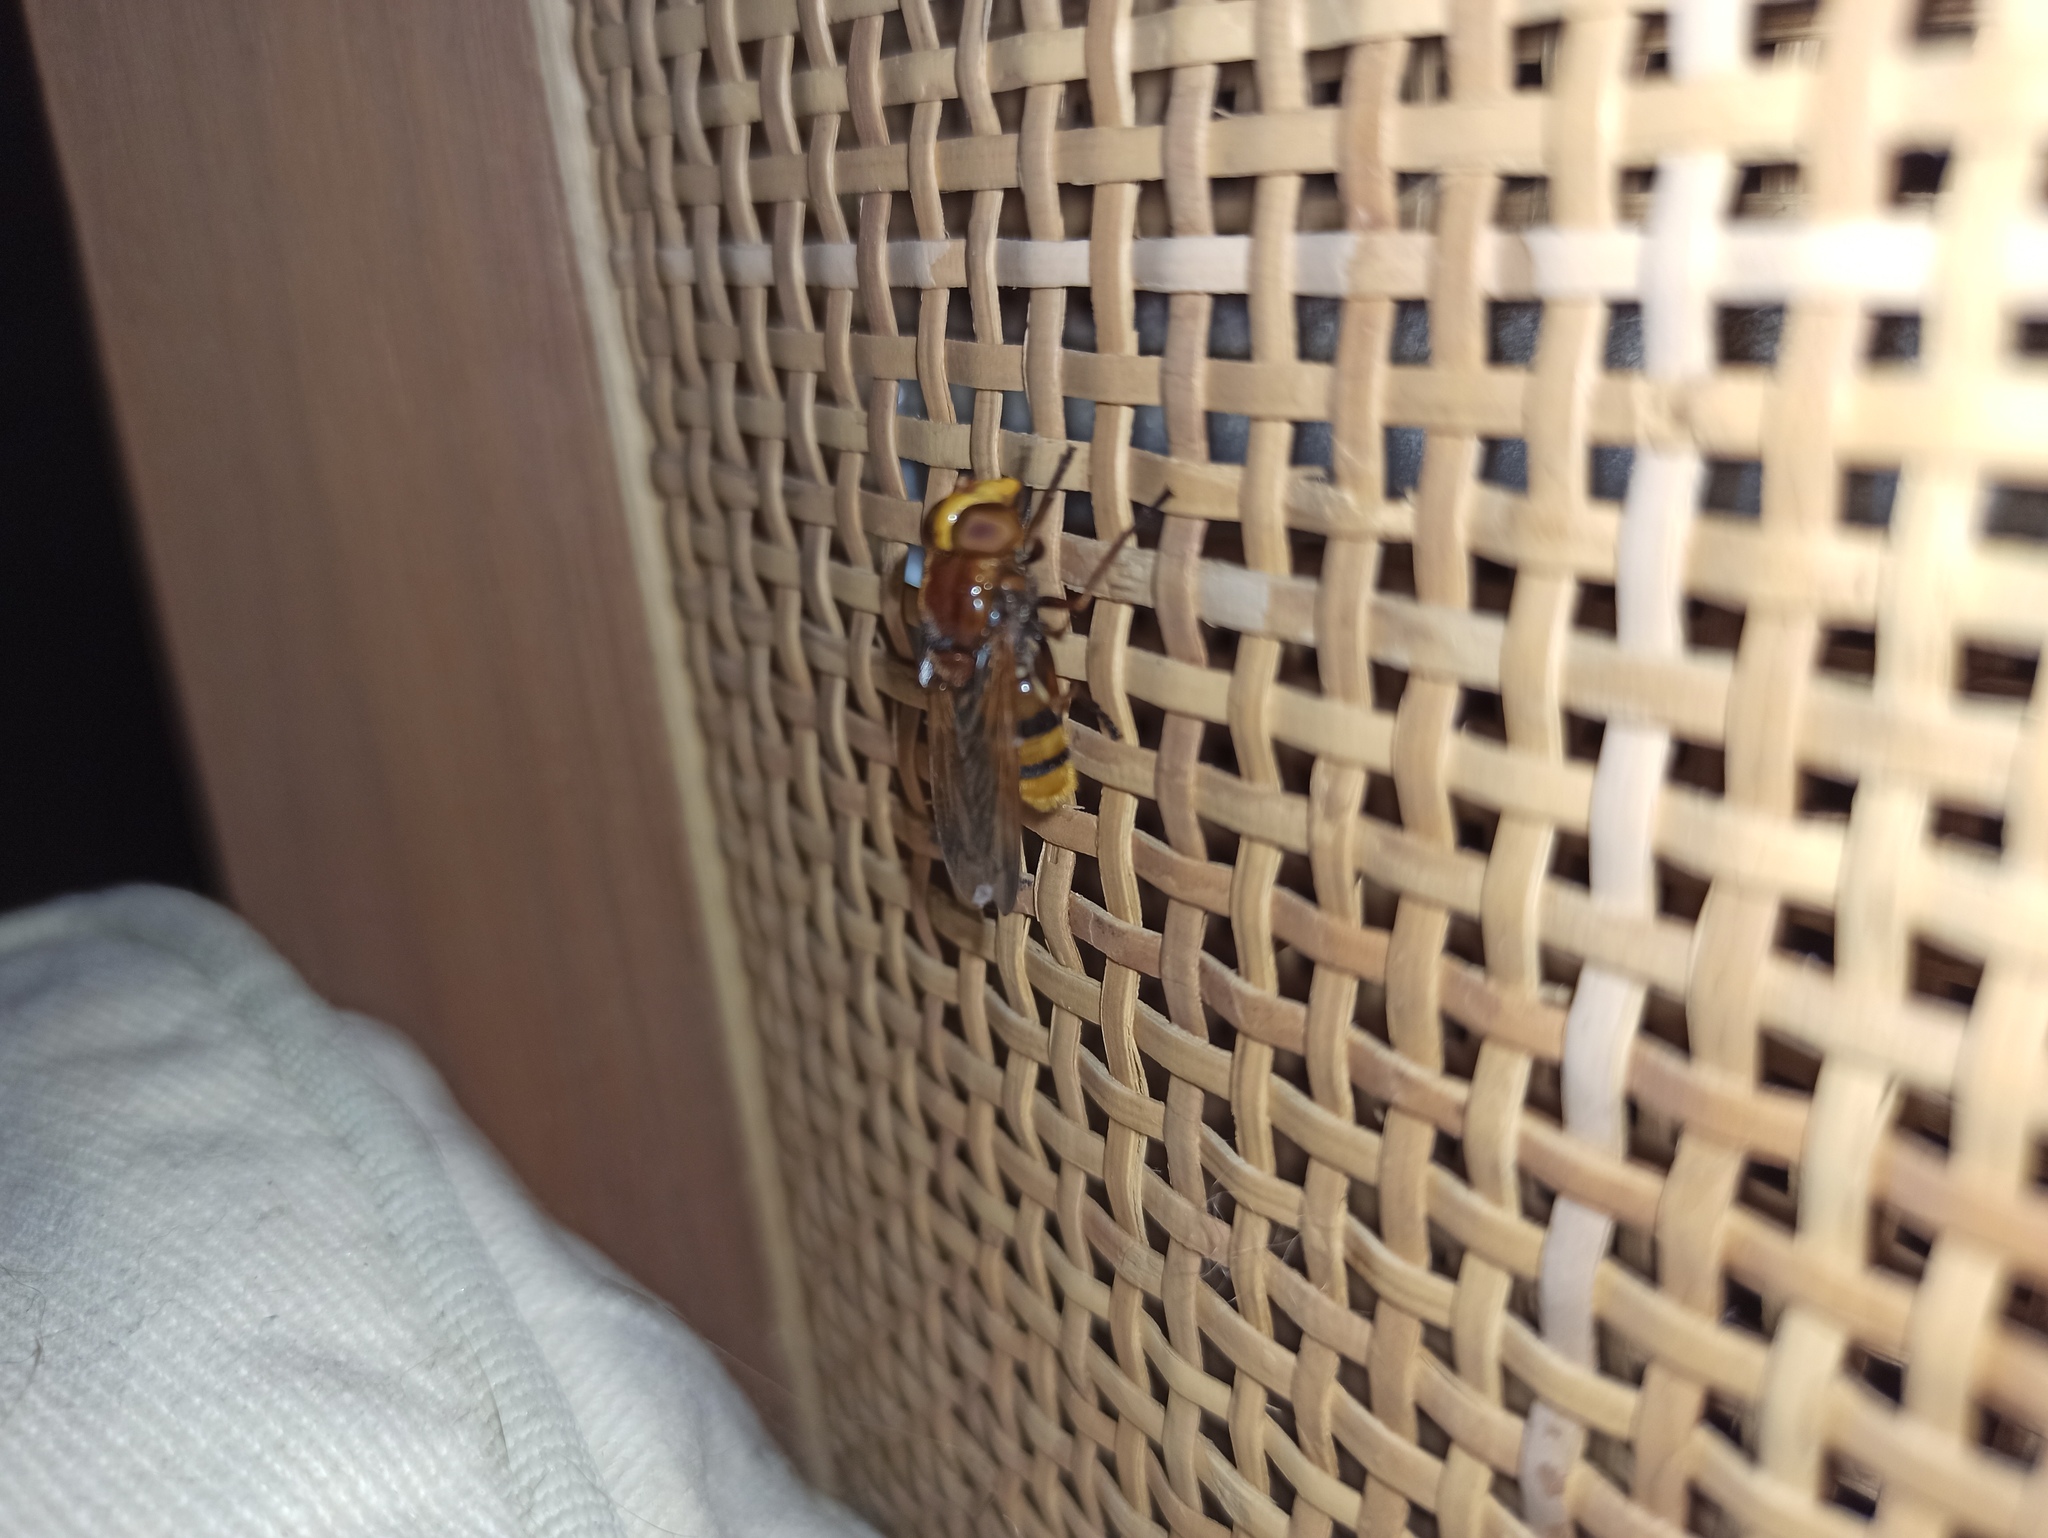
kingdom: Animalia
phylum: Arthropoda
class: Insecta
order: Diptera
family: Syrphidae
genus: Volucella
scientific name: Volucella zonaria
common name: Hornet hoverfly
